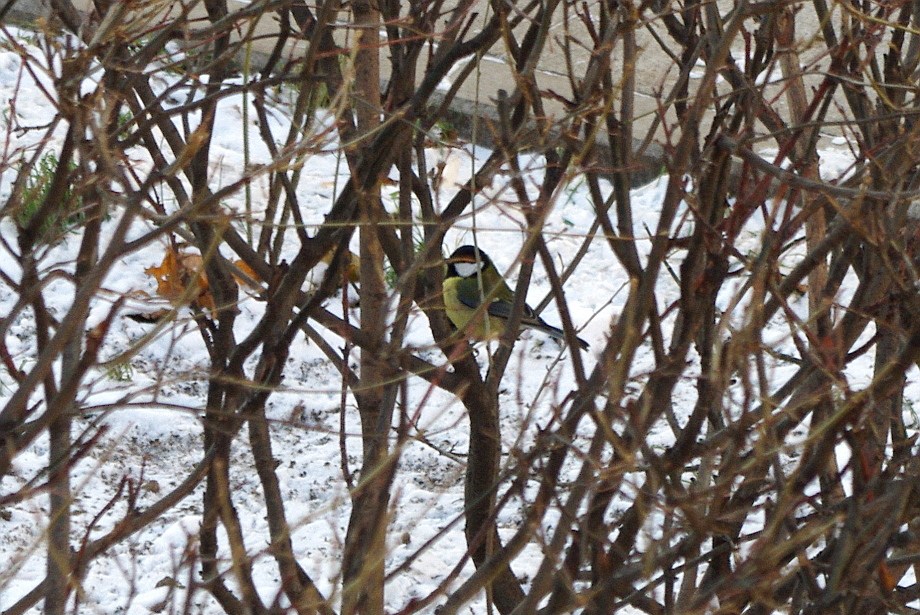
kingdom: Animalia
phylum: Chordata
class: Aves
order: Passeriformes
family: Paridae
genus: Parus
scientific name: Parus major
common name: Great tit
